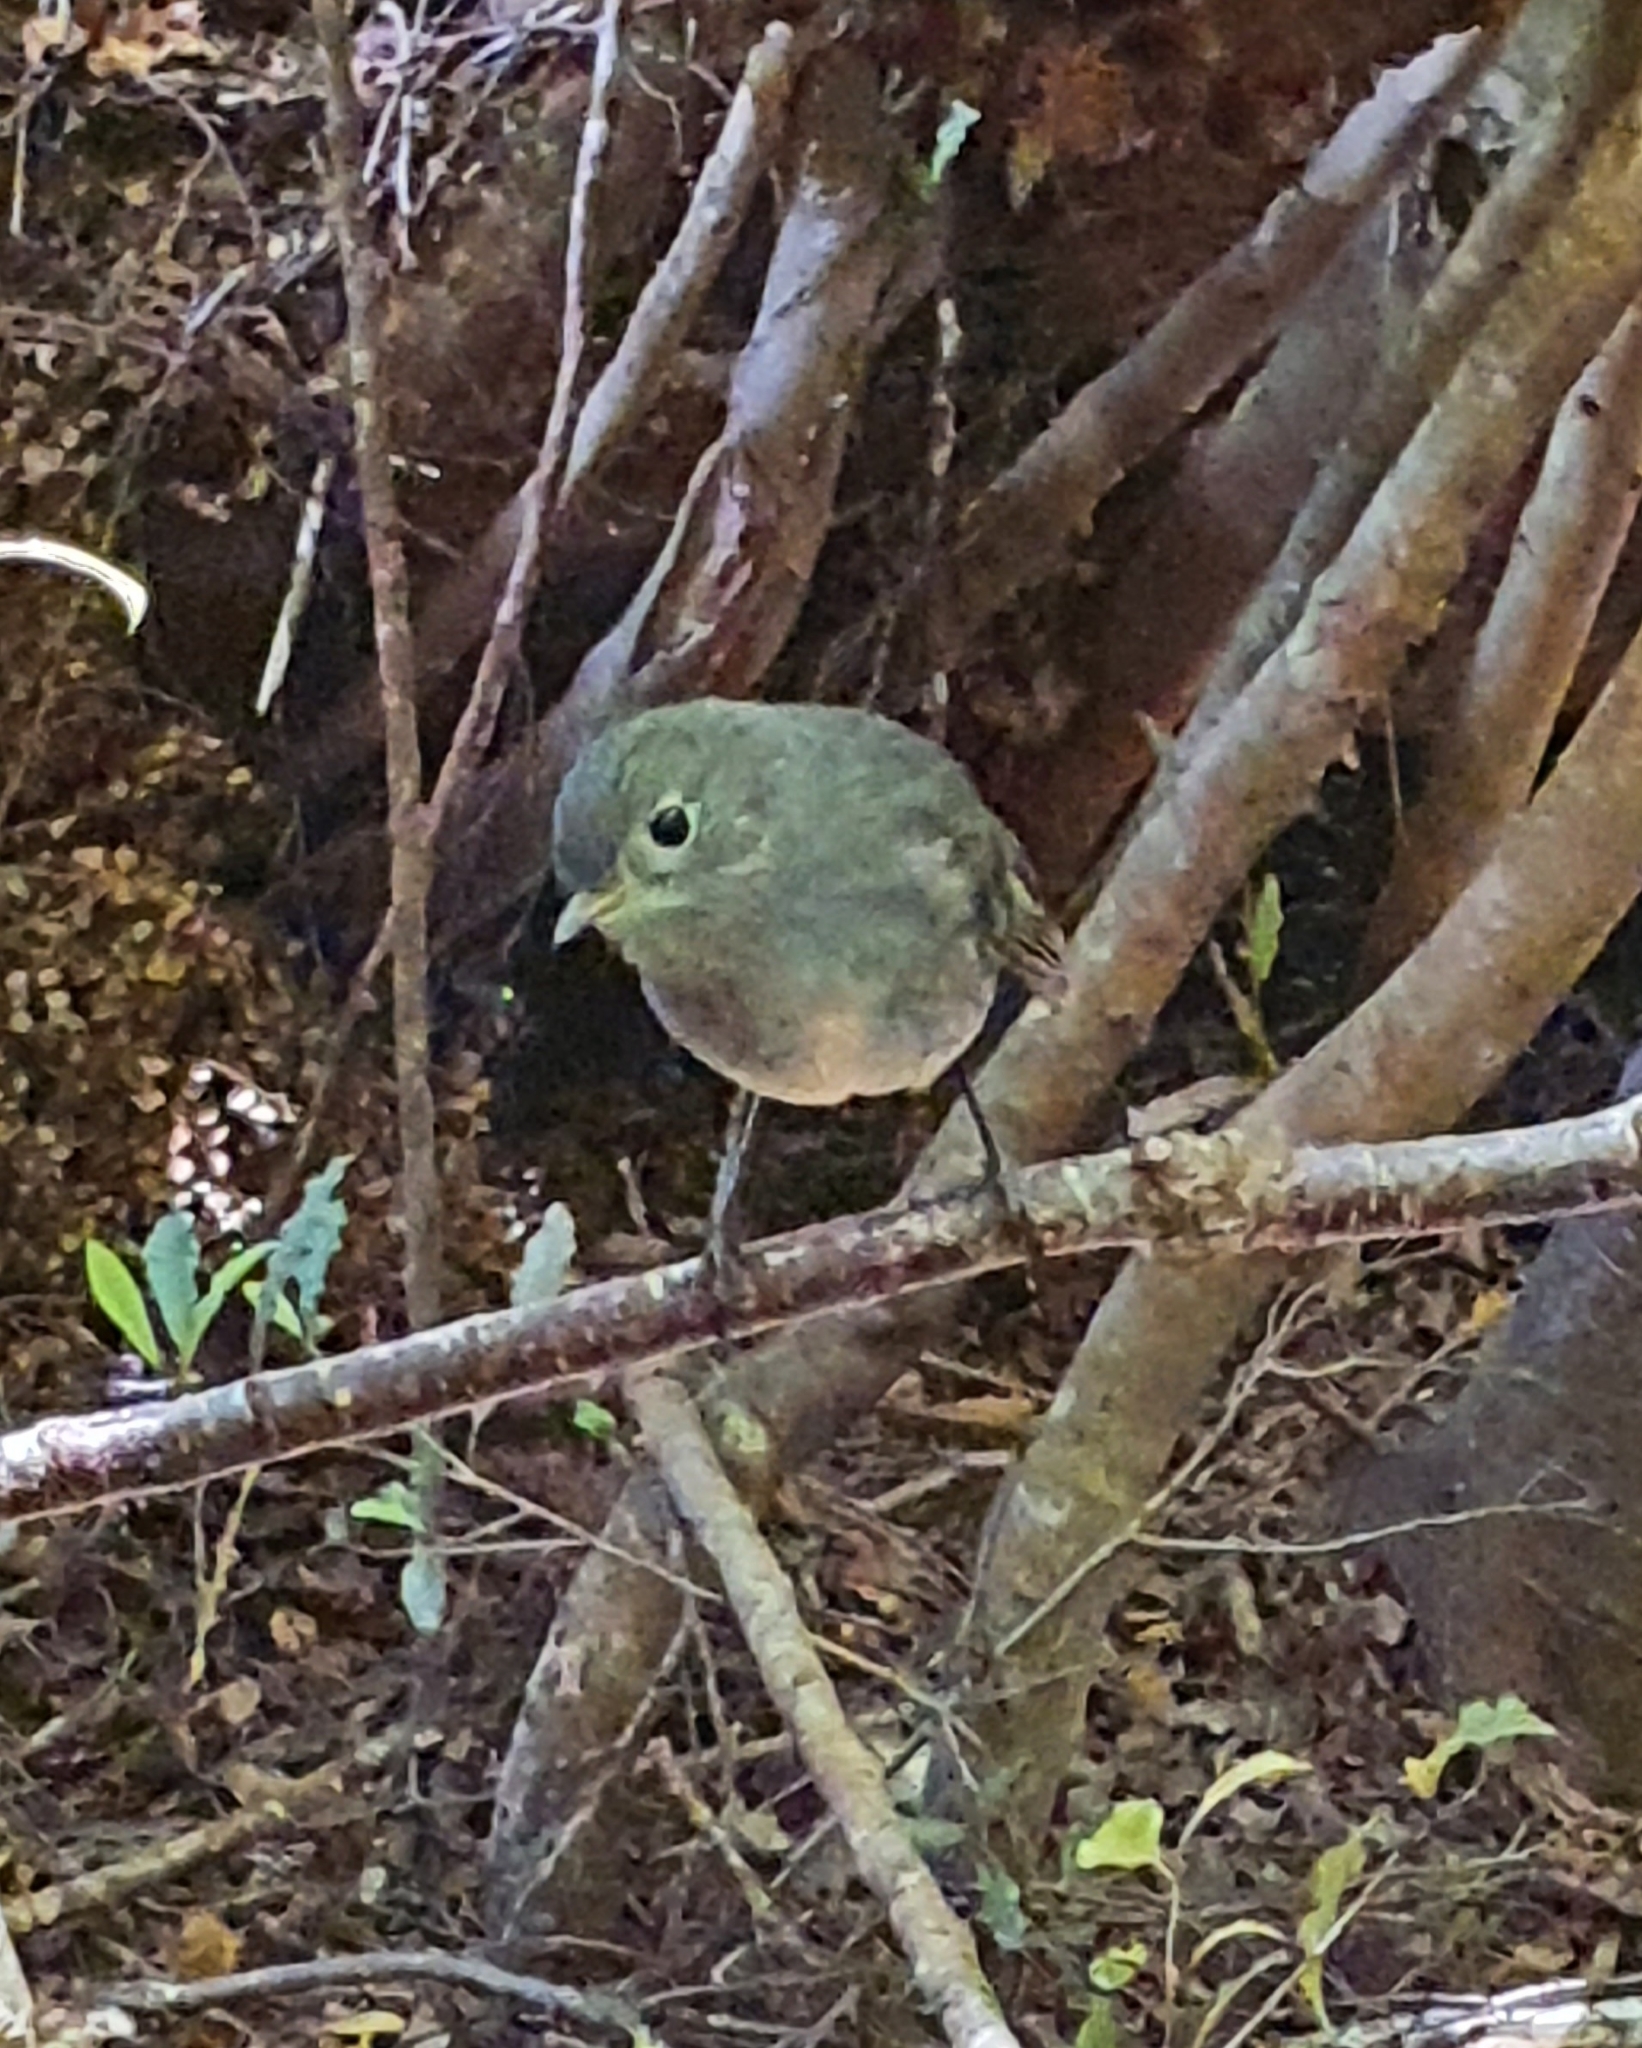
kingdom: Animalia
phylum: Chordata
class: Aves
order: Passeriformes
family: Petroicidae
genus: Petroica
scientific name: Petroica australis
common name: New zealand robin
